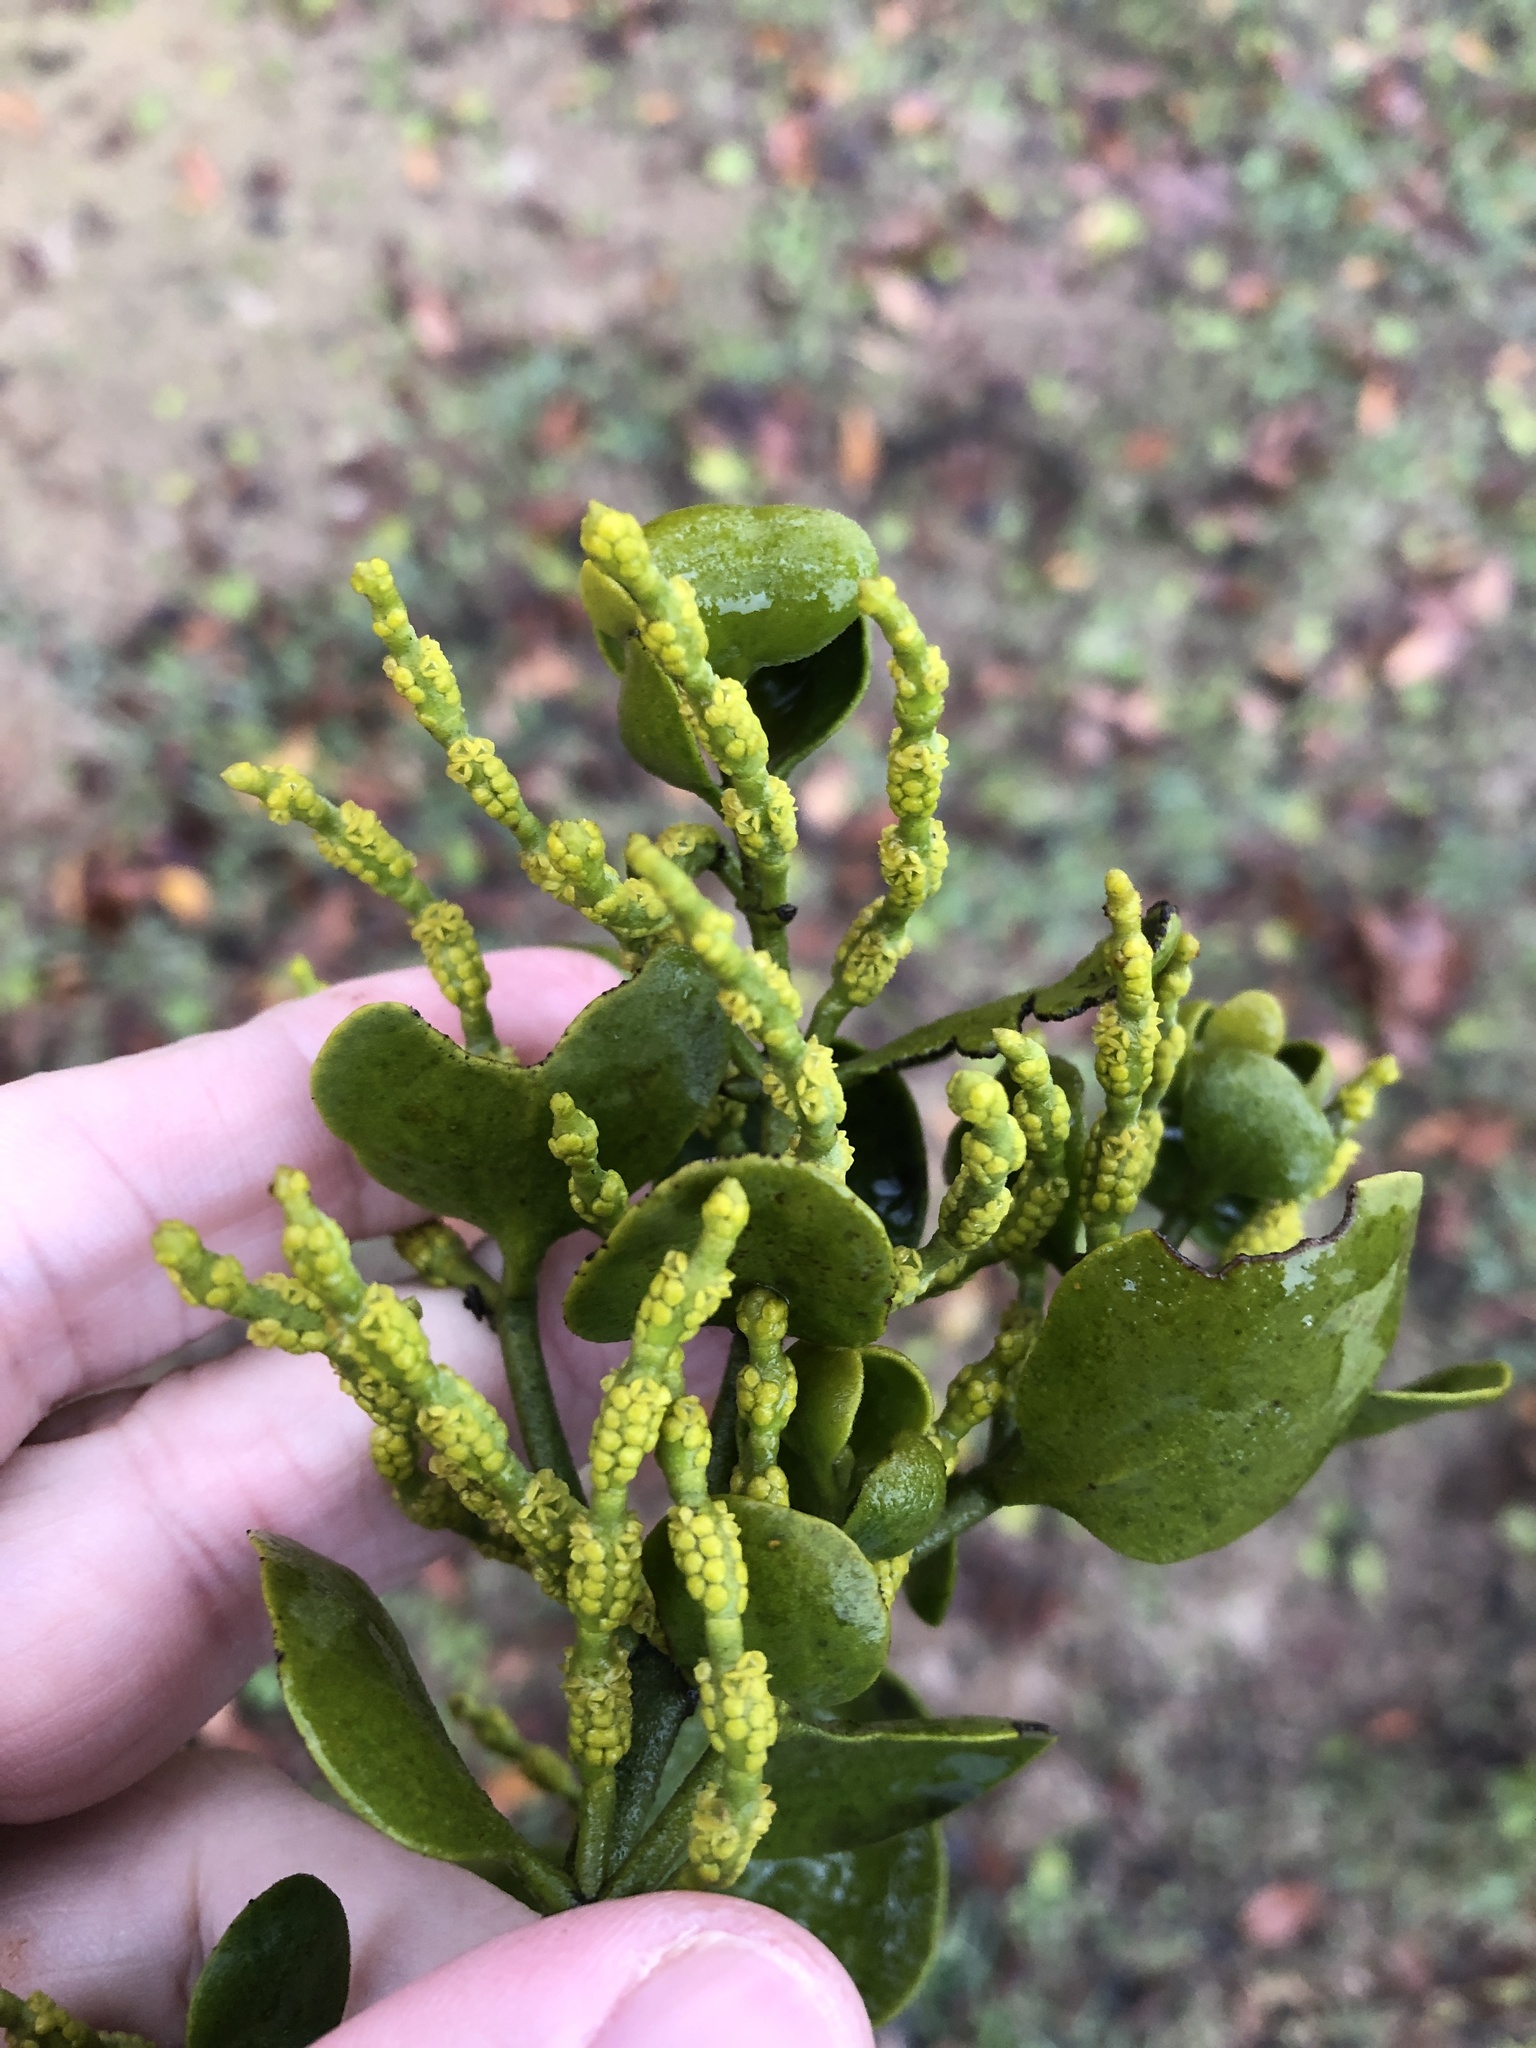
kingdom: Plantae
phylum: Tracheophyta
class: Magnoliopsida
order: Santalales
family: Viscaceae
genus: Phoradendron
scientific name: Phoradendron leucarpum
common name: Pacific mistletoe
